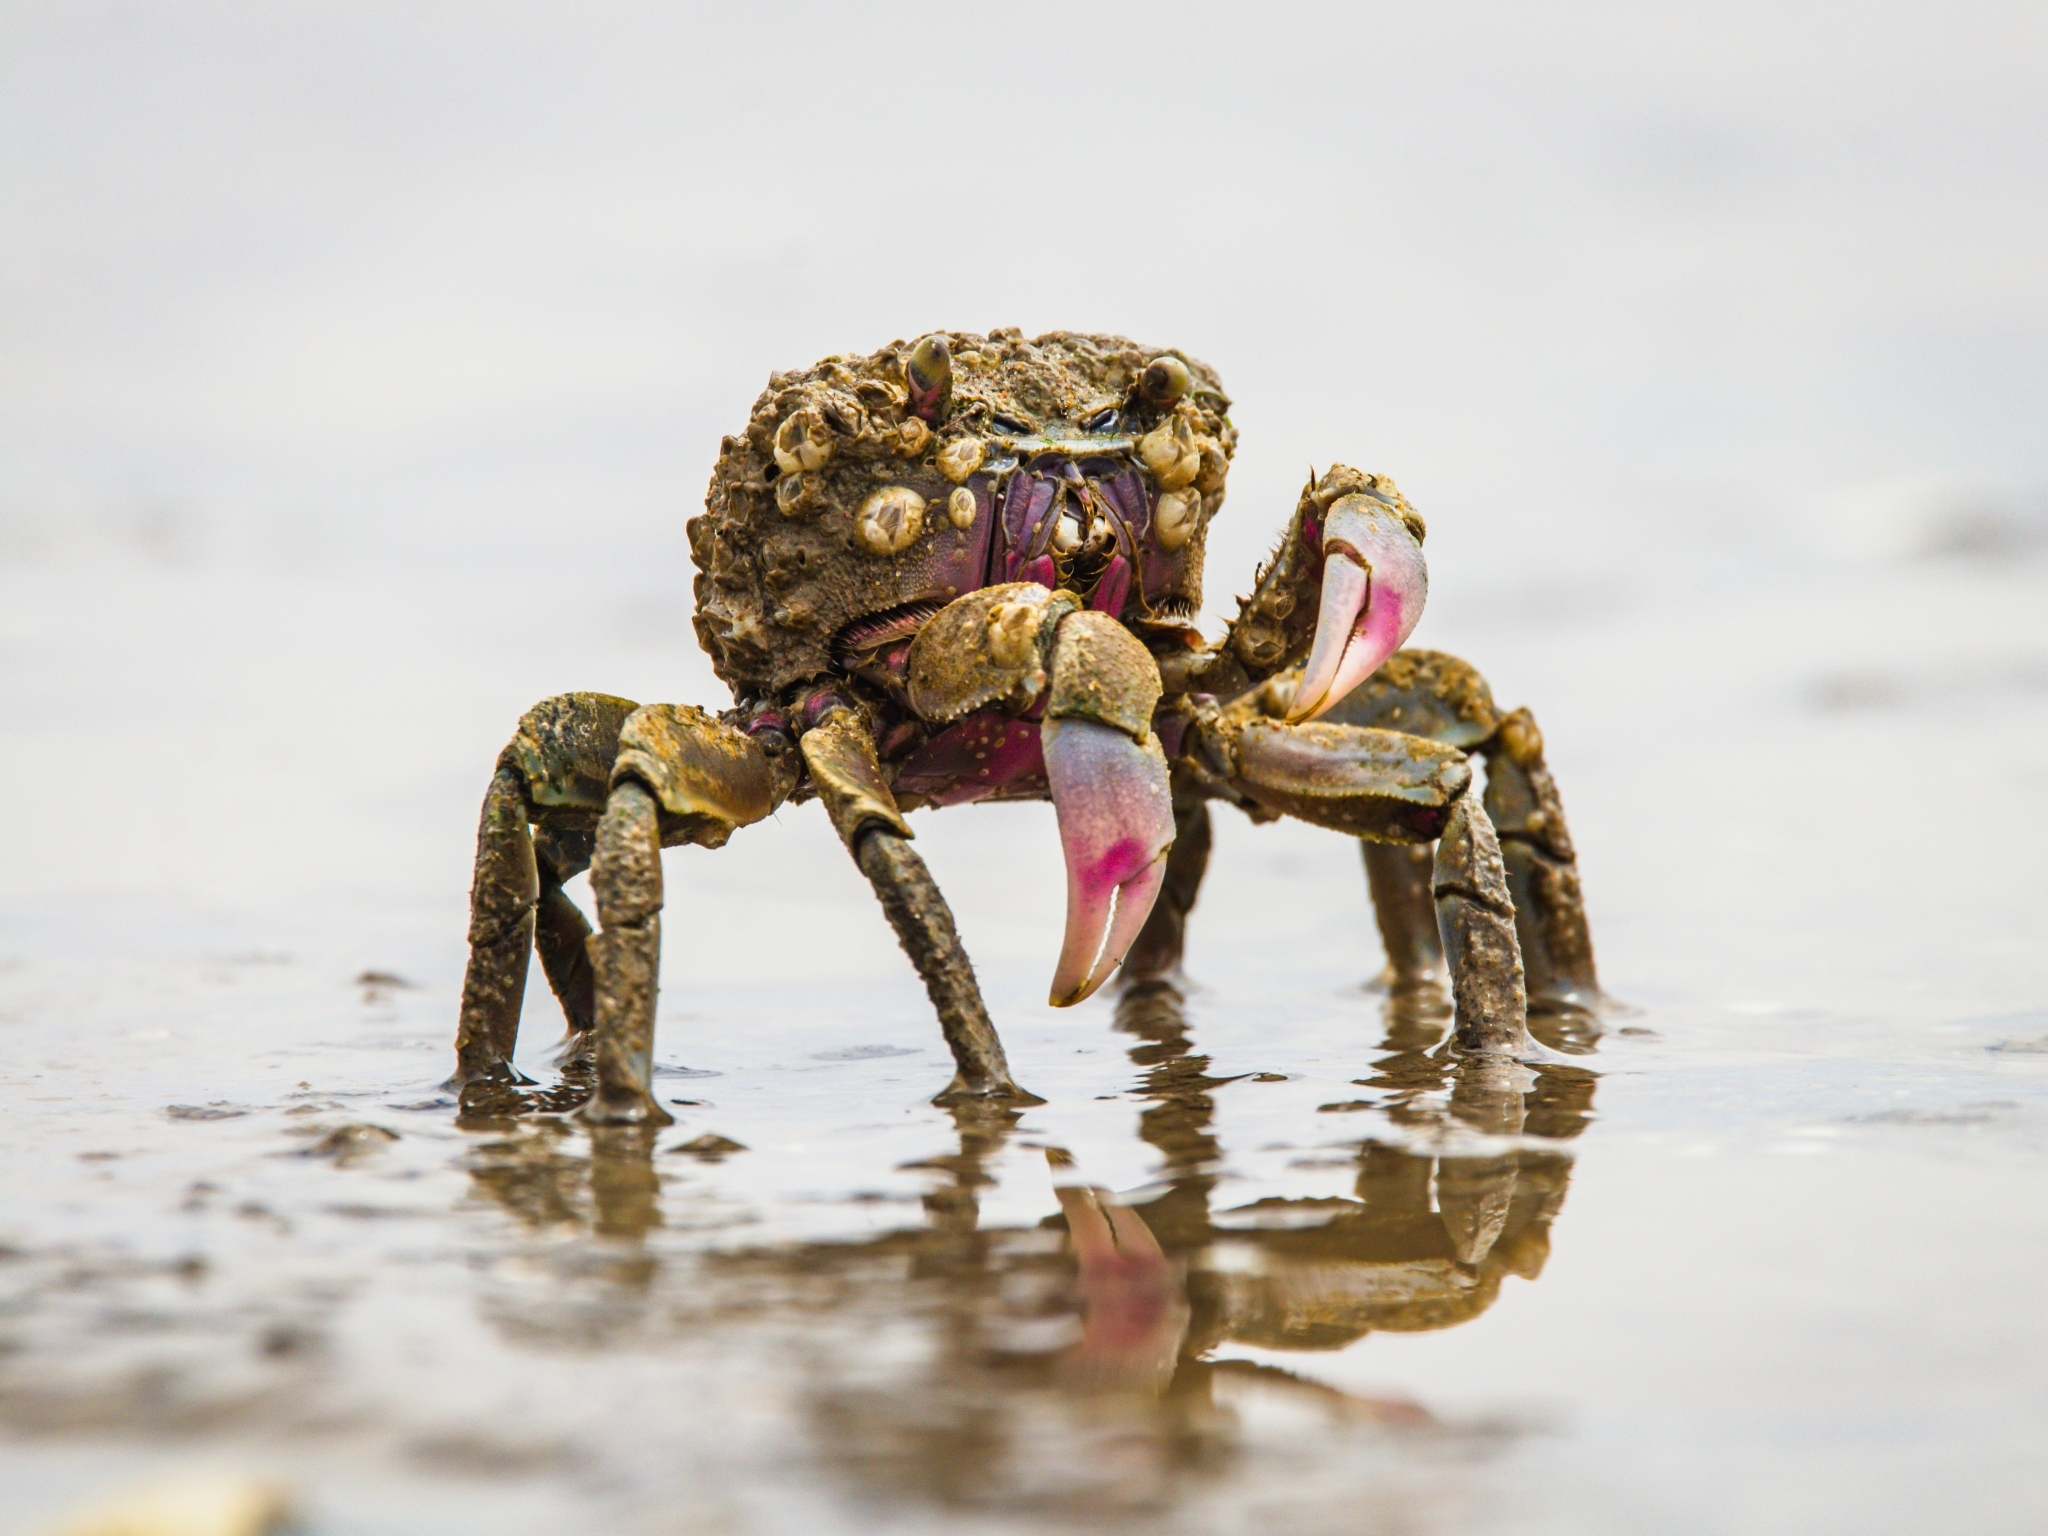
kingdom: Animalia
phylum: Arthropoda
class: Malacostraca
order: Decapoda
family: Varunidae
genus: Neohelice
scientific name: Neohelice granulata
